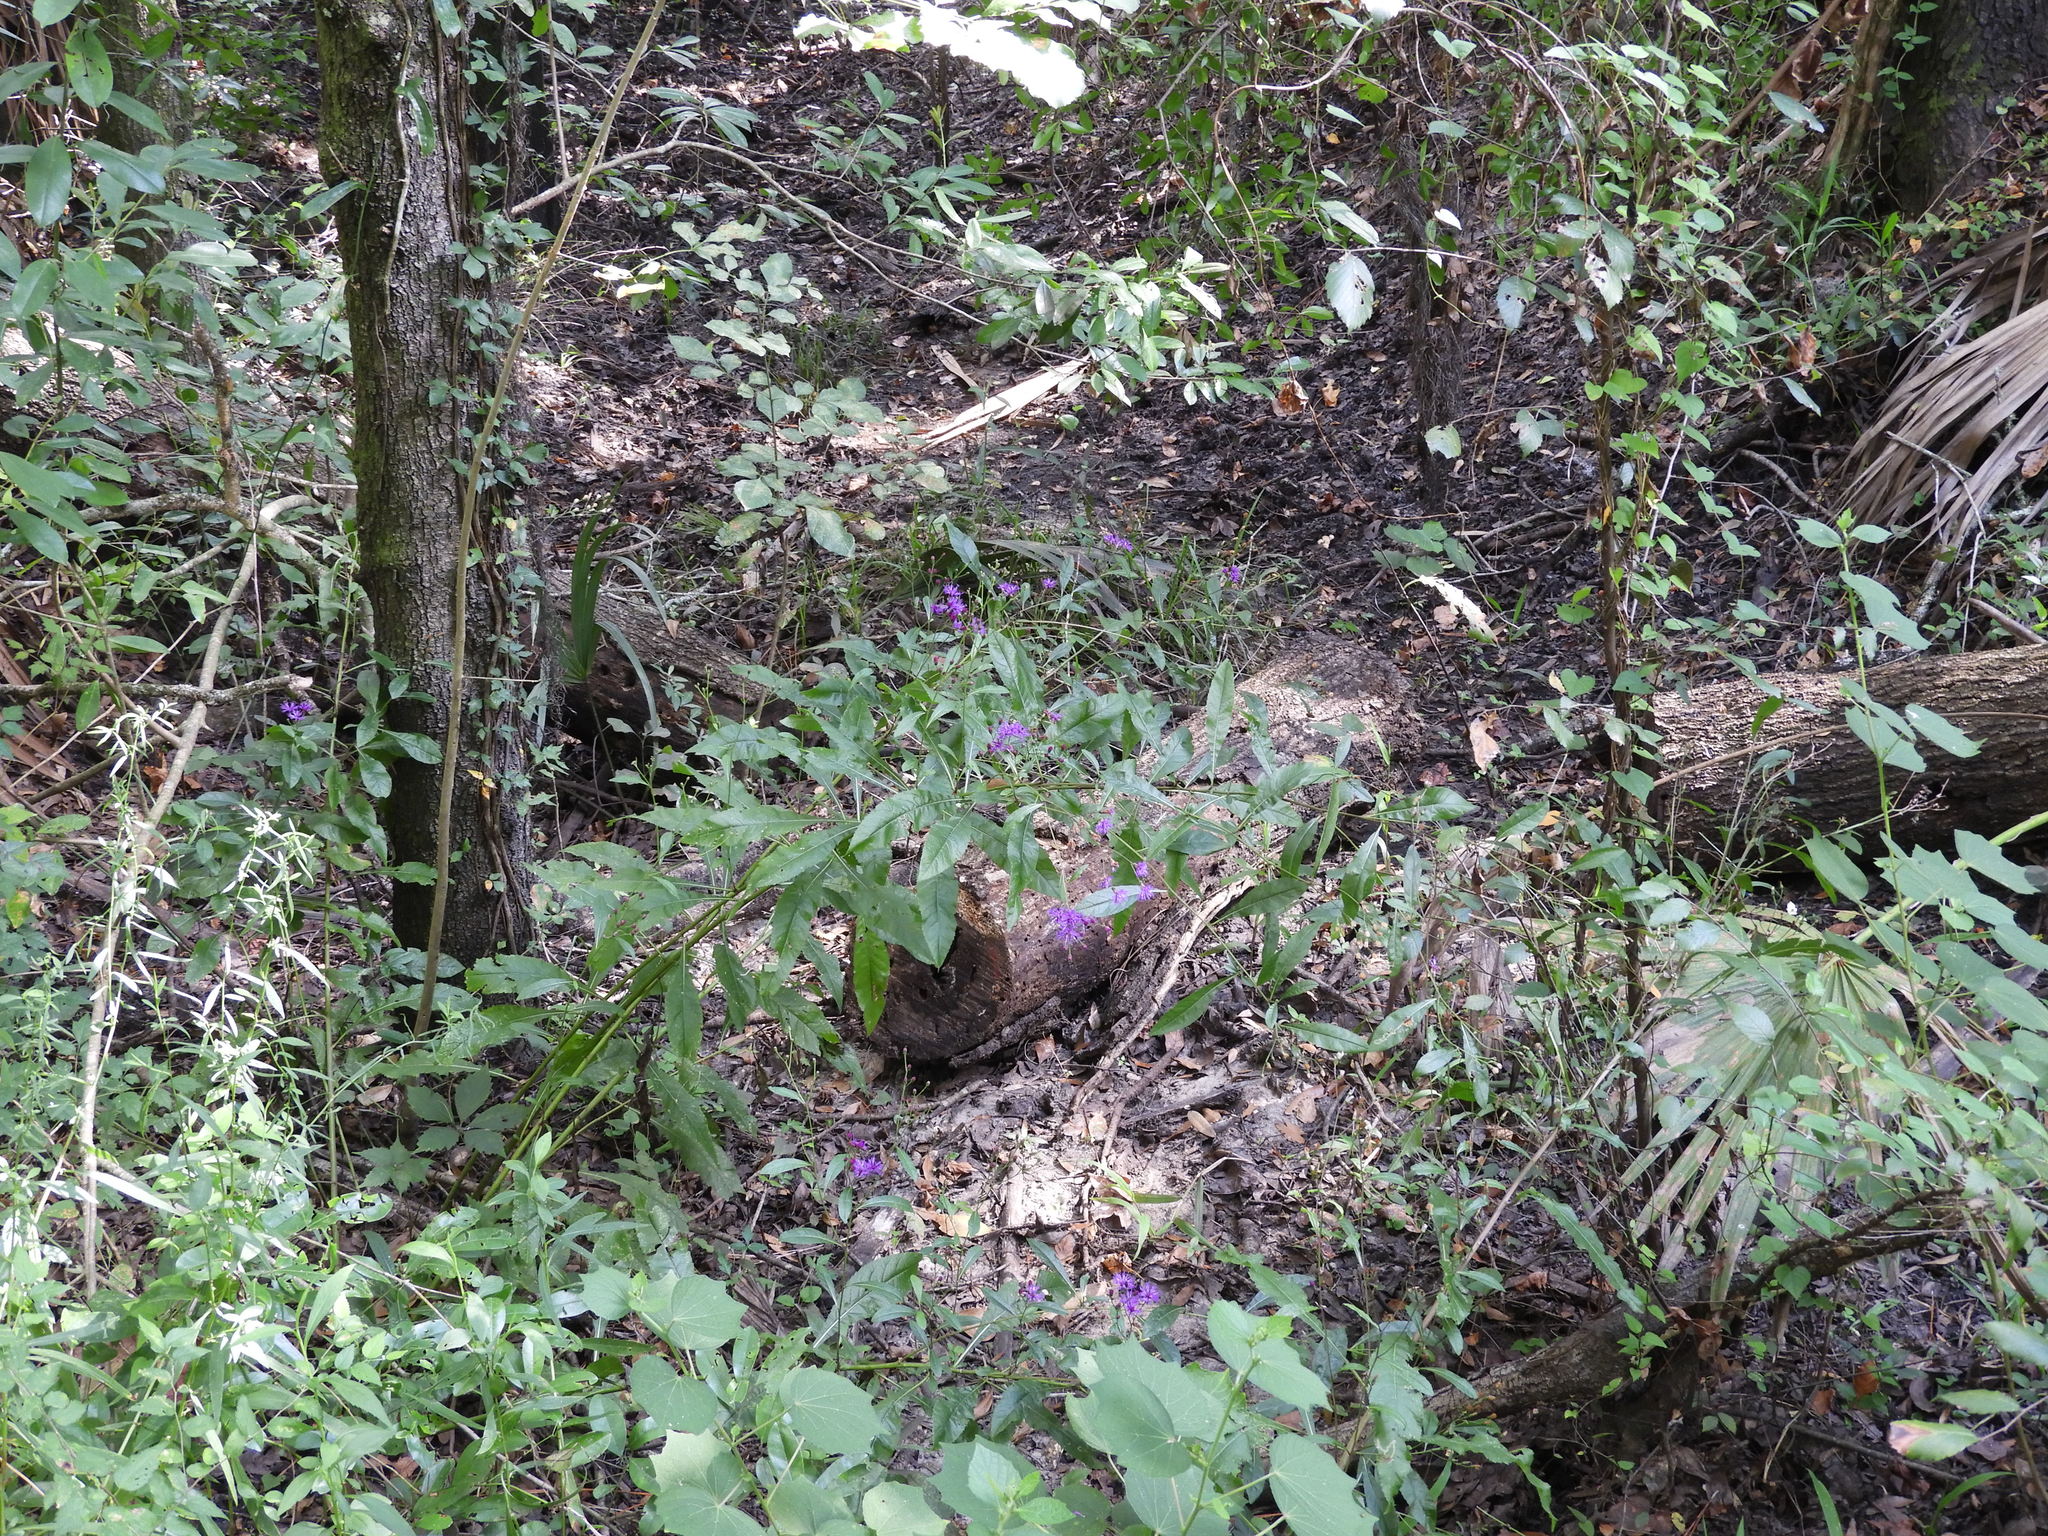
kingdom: Plantae
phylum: Tracheophyta
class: Magnoliopsida
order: Asterales
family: Asteraceae
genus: Vernonia
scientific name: Vernonia gigantea
